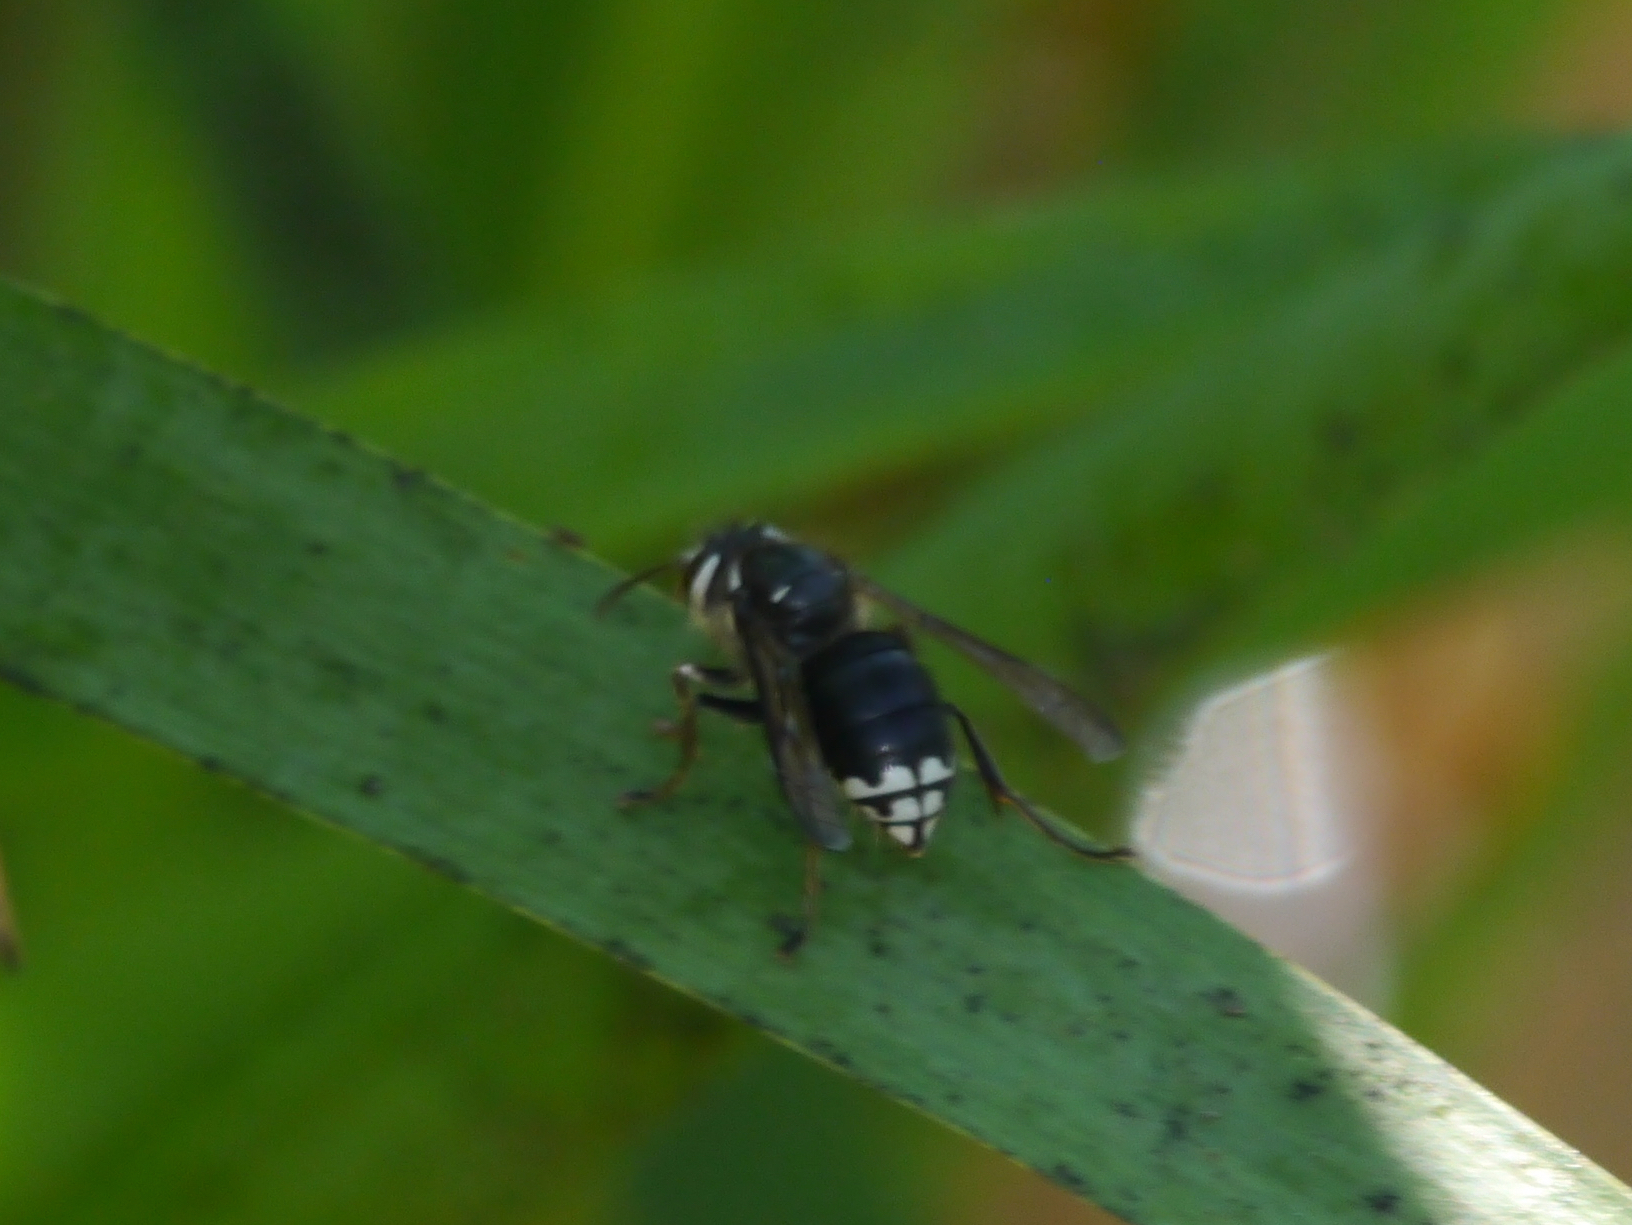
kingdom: Animalia
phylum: Arthropoda
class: Insecta
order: Hymenoptera
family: Vespidae
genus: Dolichovespula
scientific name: Dolichovespula maculata
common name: Bald-faced hornet
